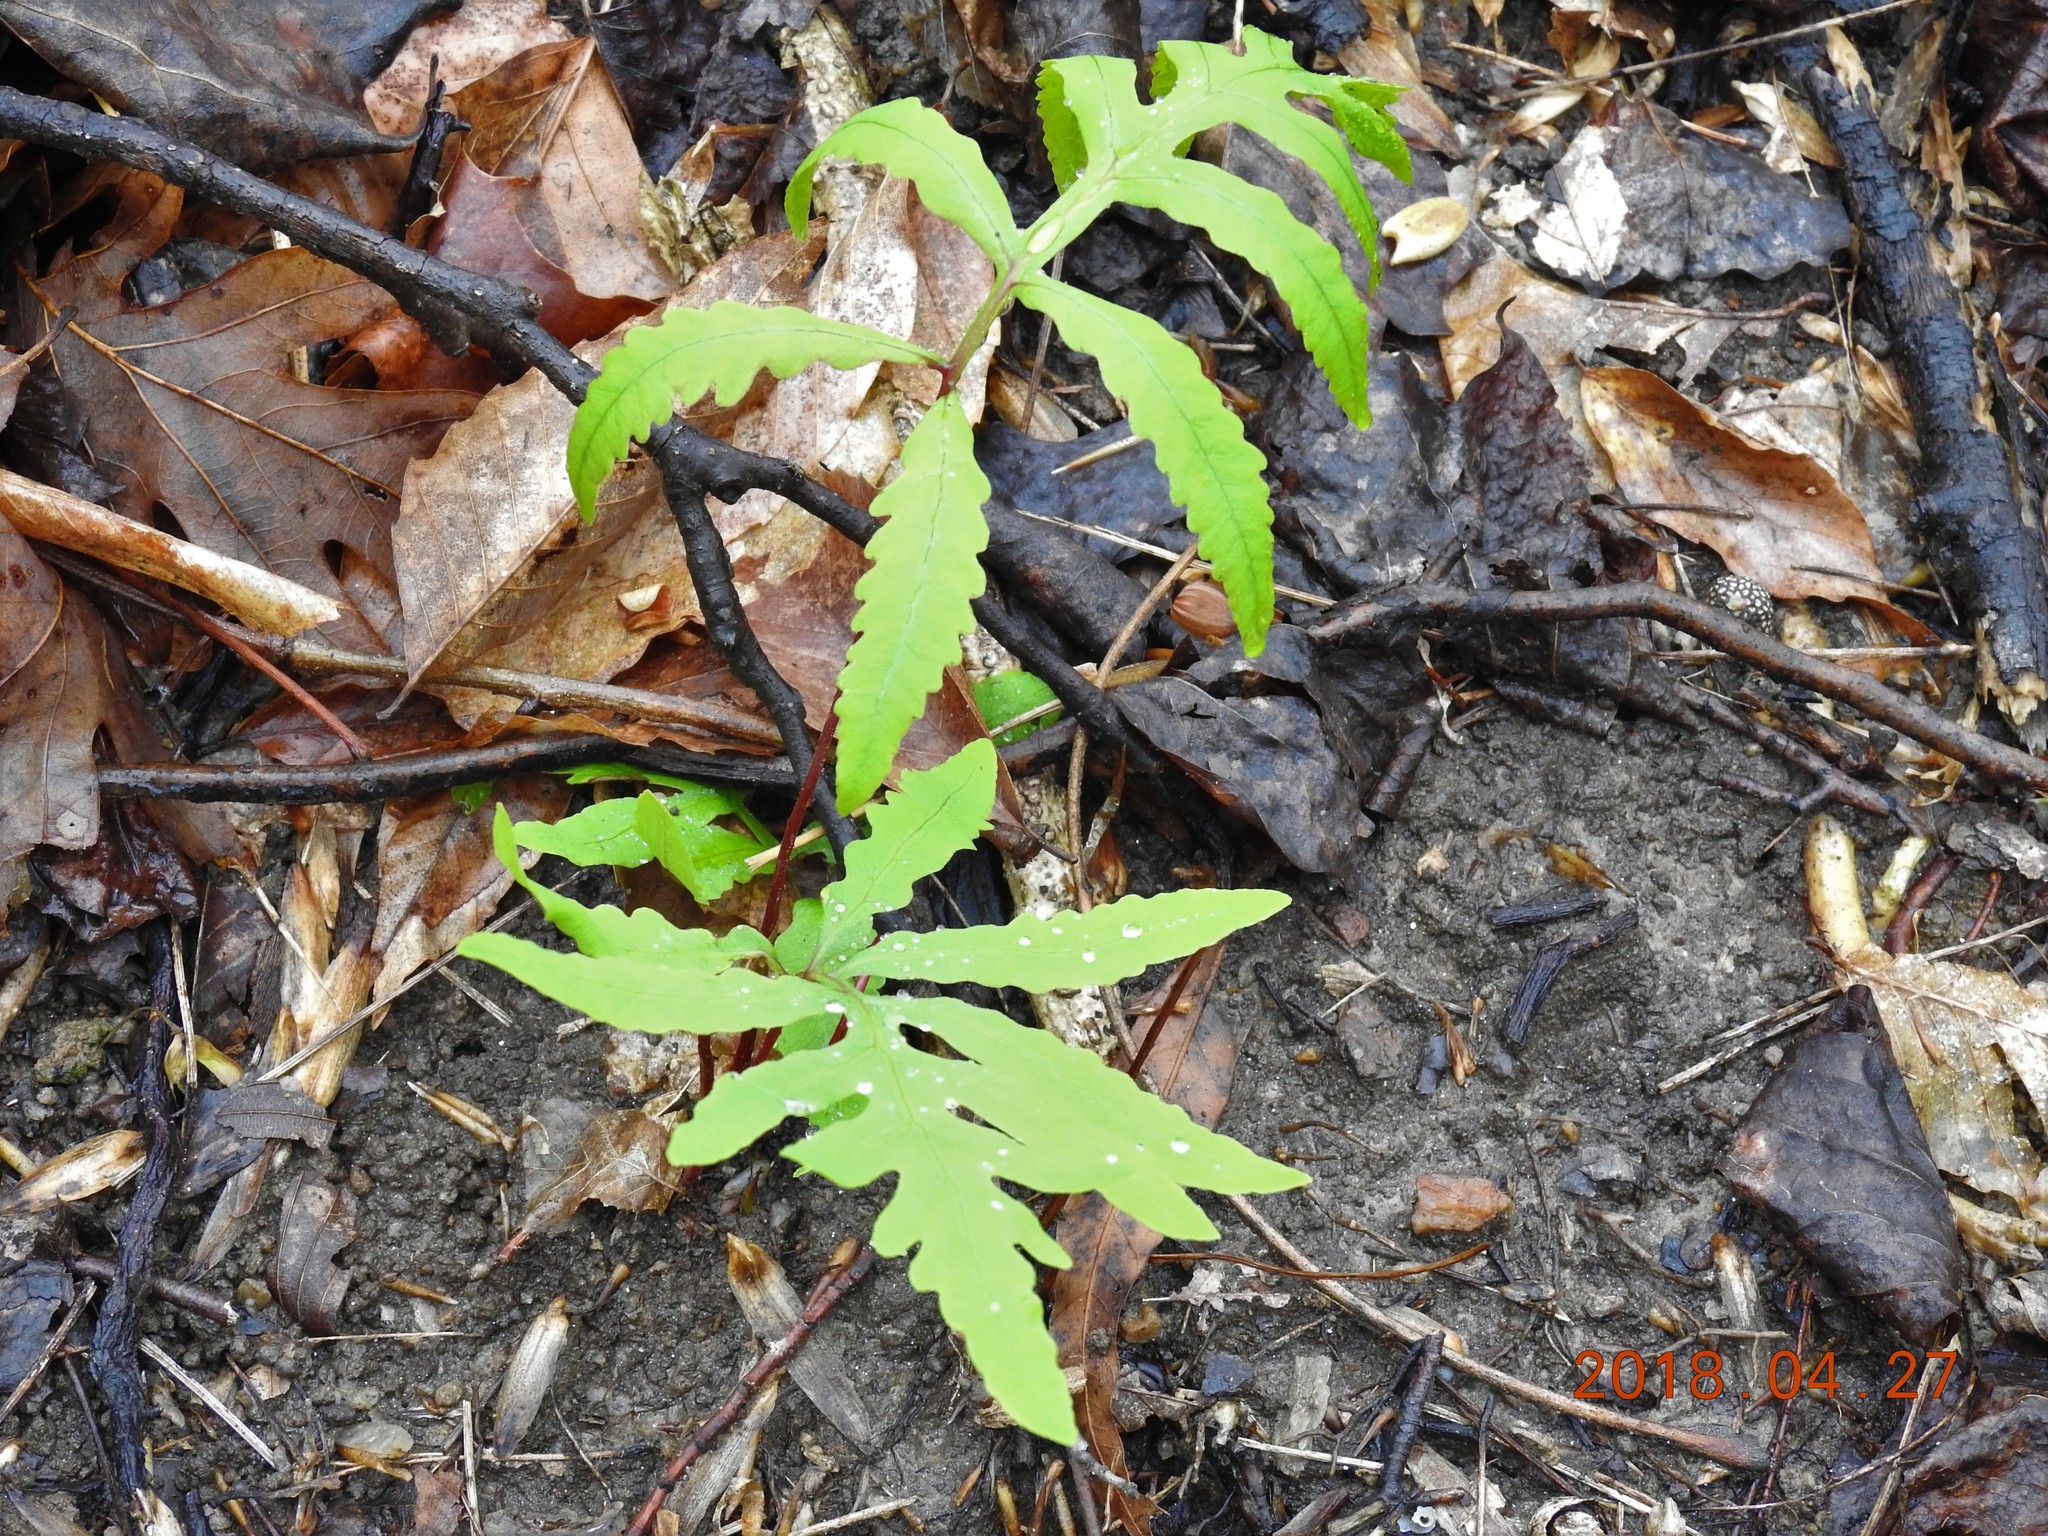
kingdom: Plantae
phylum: Tracheophyta
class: Polypodiopsida
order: Polypodiales
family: Onocleaceae
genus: Onoclea
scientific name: Onoclea sensibilis
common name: Sensitive fern
